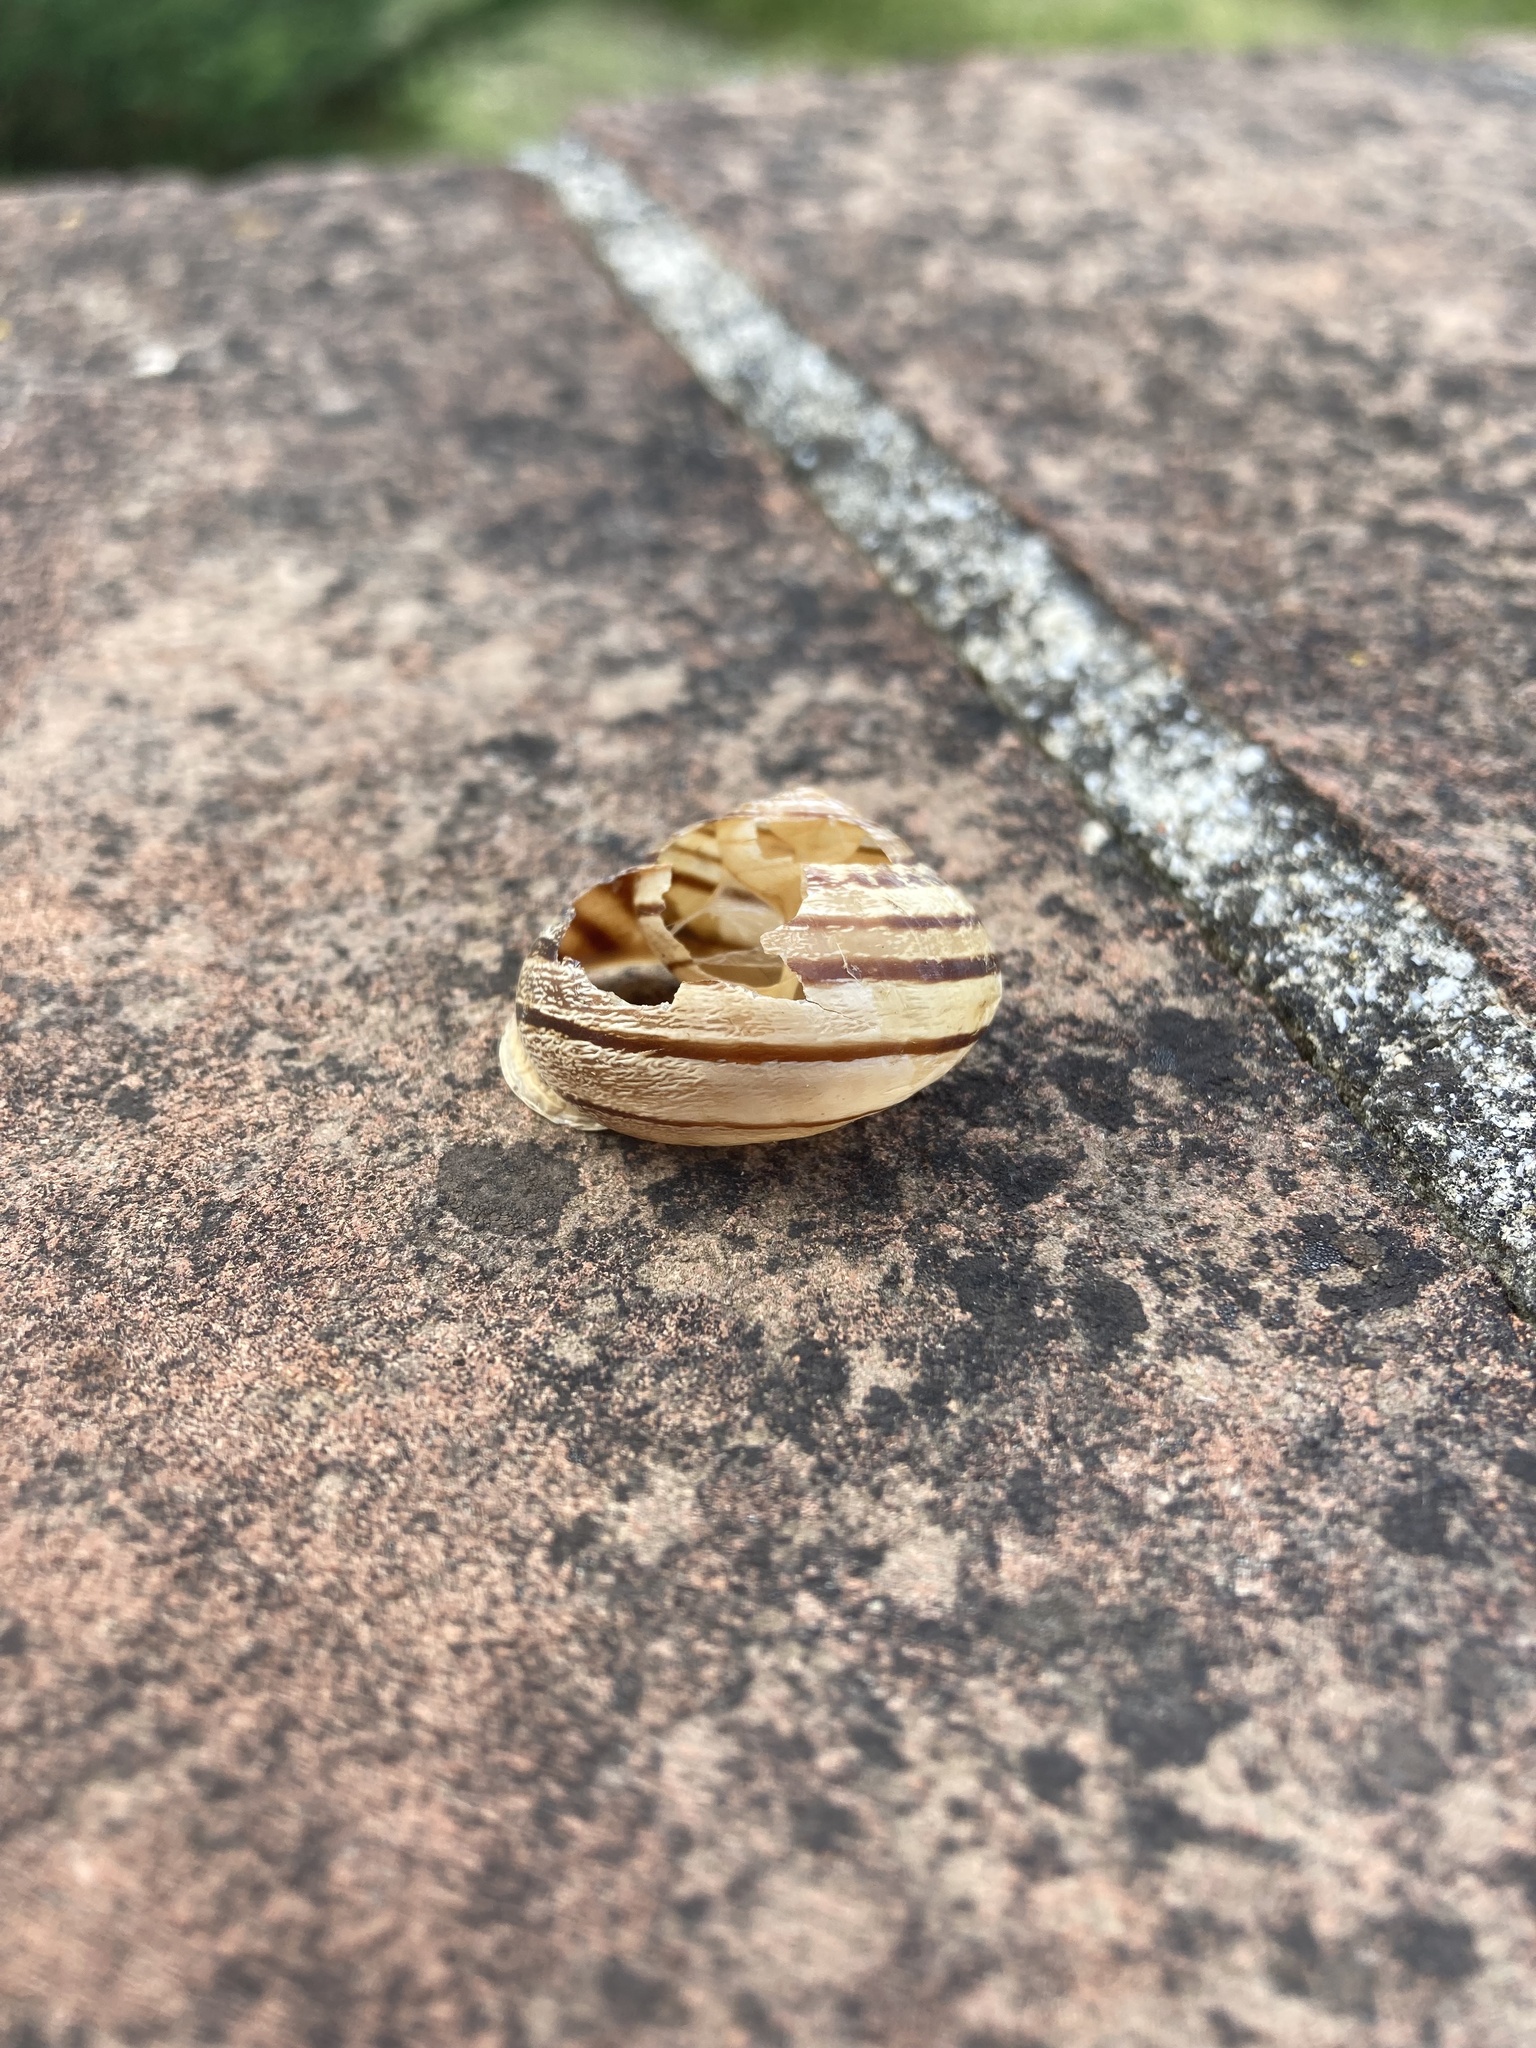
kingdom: Animalia
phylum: Mollusca
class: Gastropoda
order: Stylommatophora
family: Helicidae
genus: Eobania
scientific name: Eobania vermiculata
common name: Chocolateband snail
